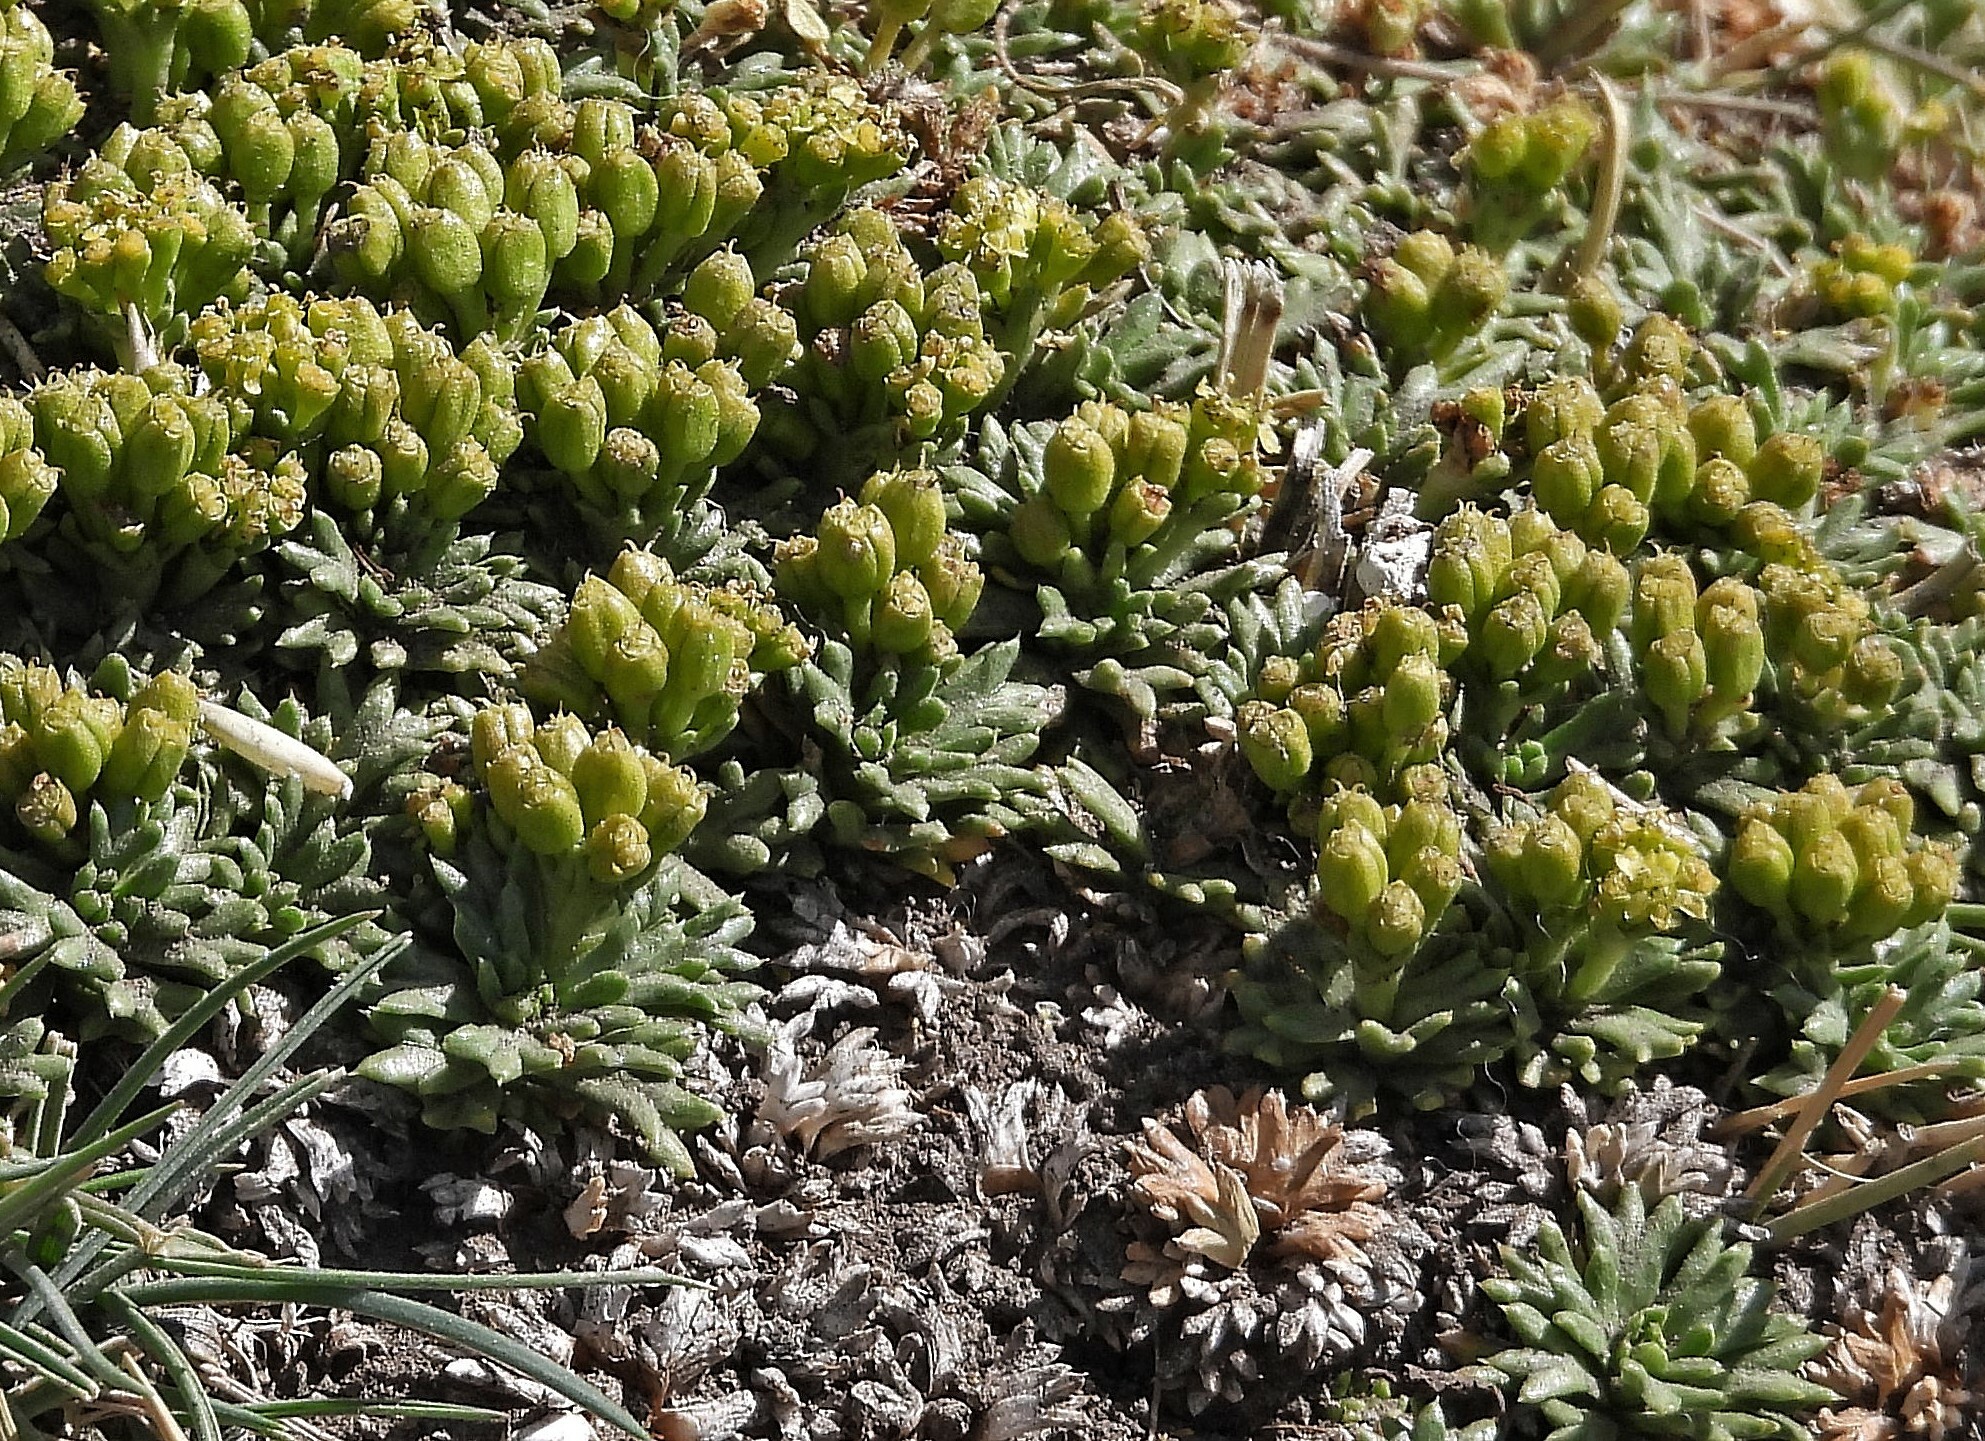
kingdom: Plantae
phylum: Tracheophyta
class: Magnoliopsida
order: Apiales
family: Apiaceae
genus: Azorella
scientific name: Azorella trifurcata
